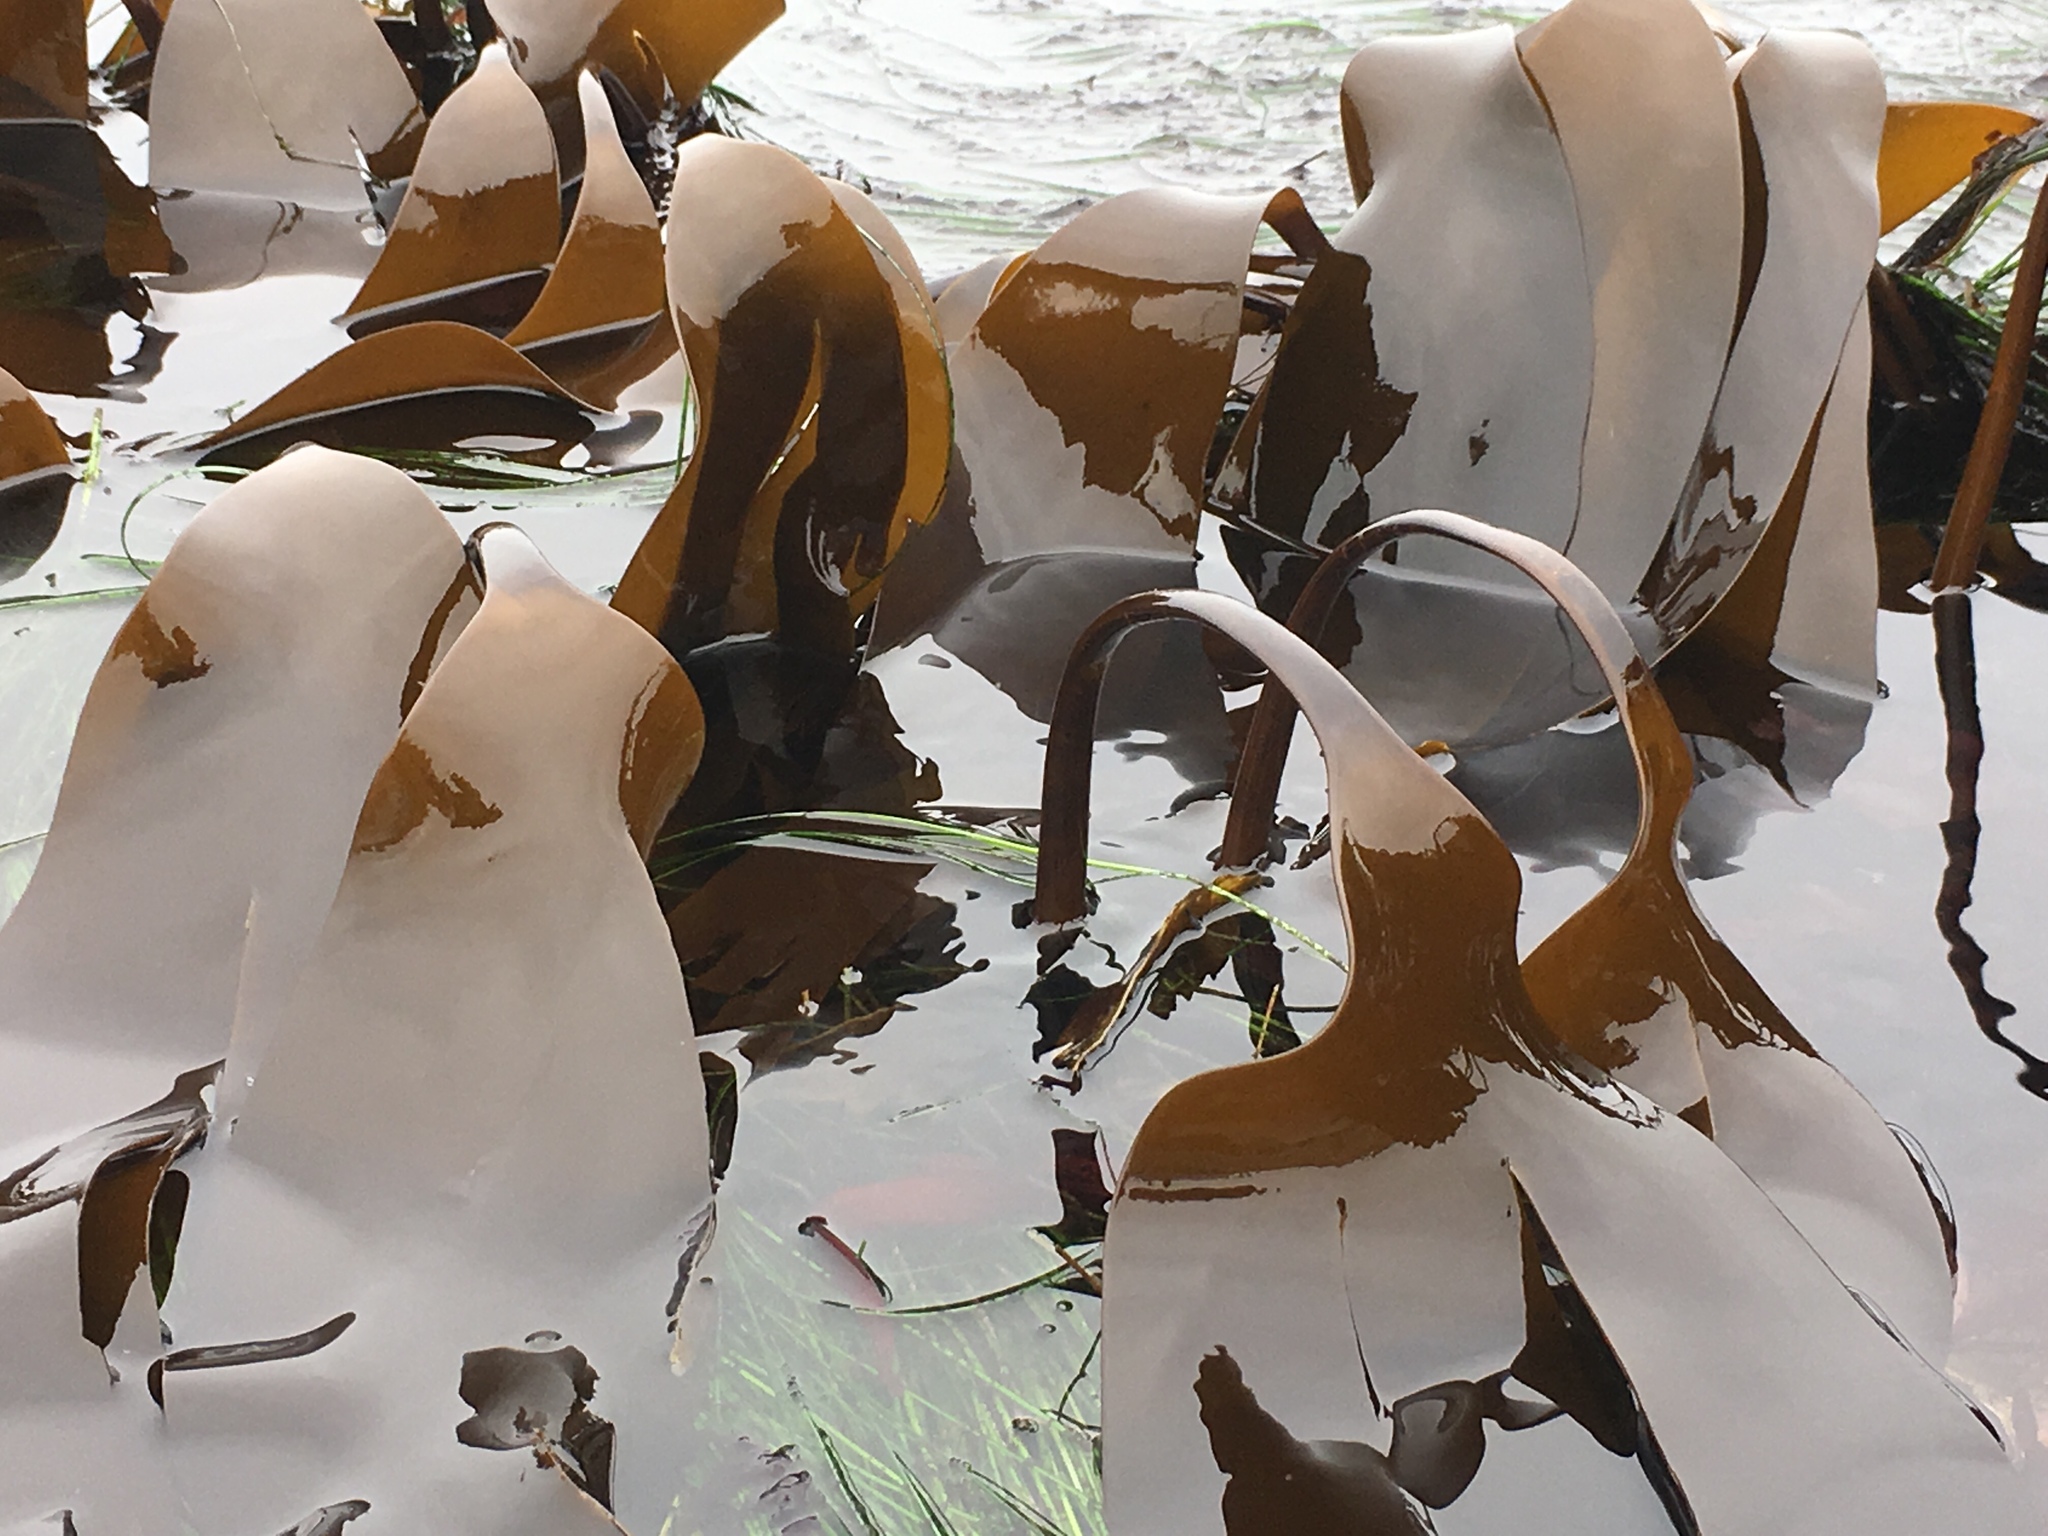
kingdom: Chromista
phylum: Ochrophyta
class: Phaeophyceae
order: Laminariales
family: Laminariaceae
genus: Laminaria
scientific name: Laminaria setchellii
